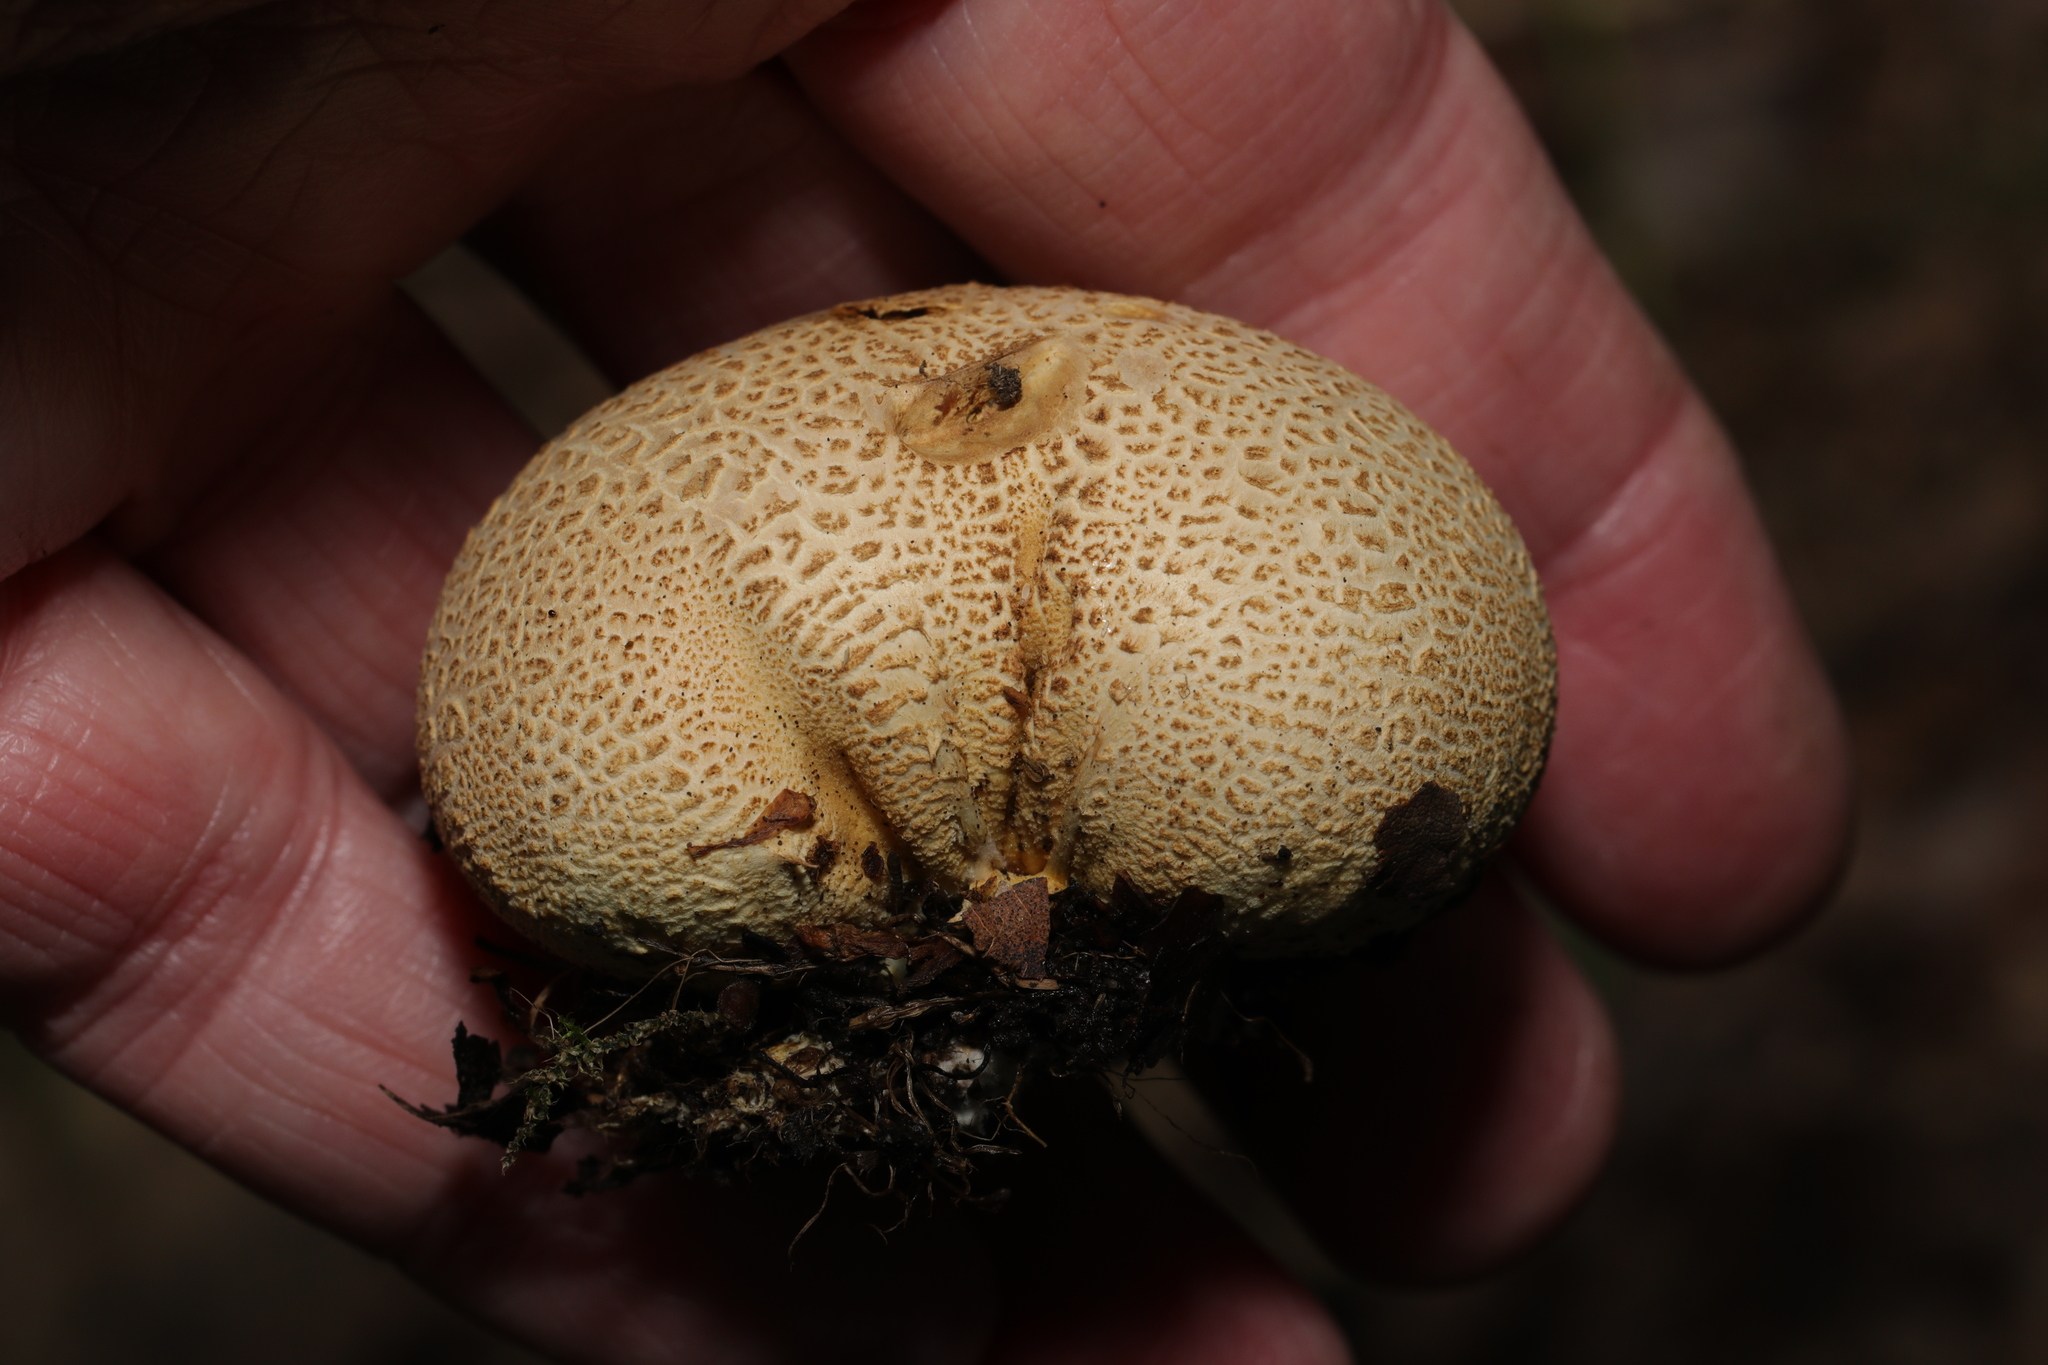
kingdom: Fungi
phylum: Basidiomycota
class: Agaricomycetes
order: Boletales
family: Sclerodermataceae
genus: Scleroderma
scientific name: Scleroderma citrinum
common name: Common earthball
